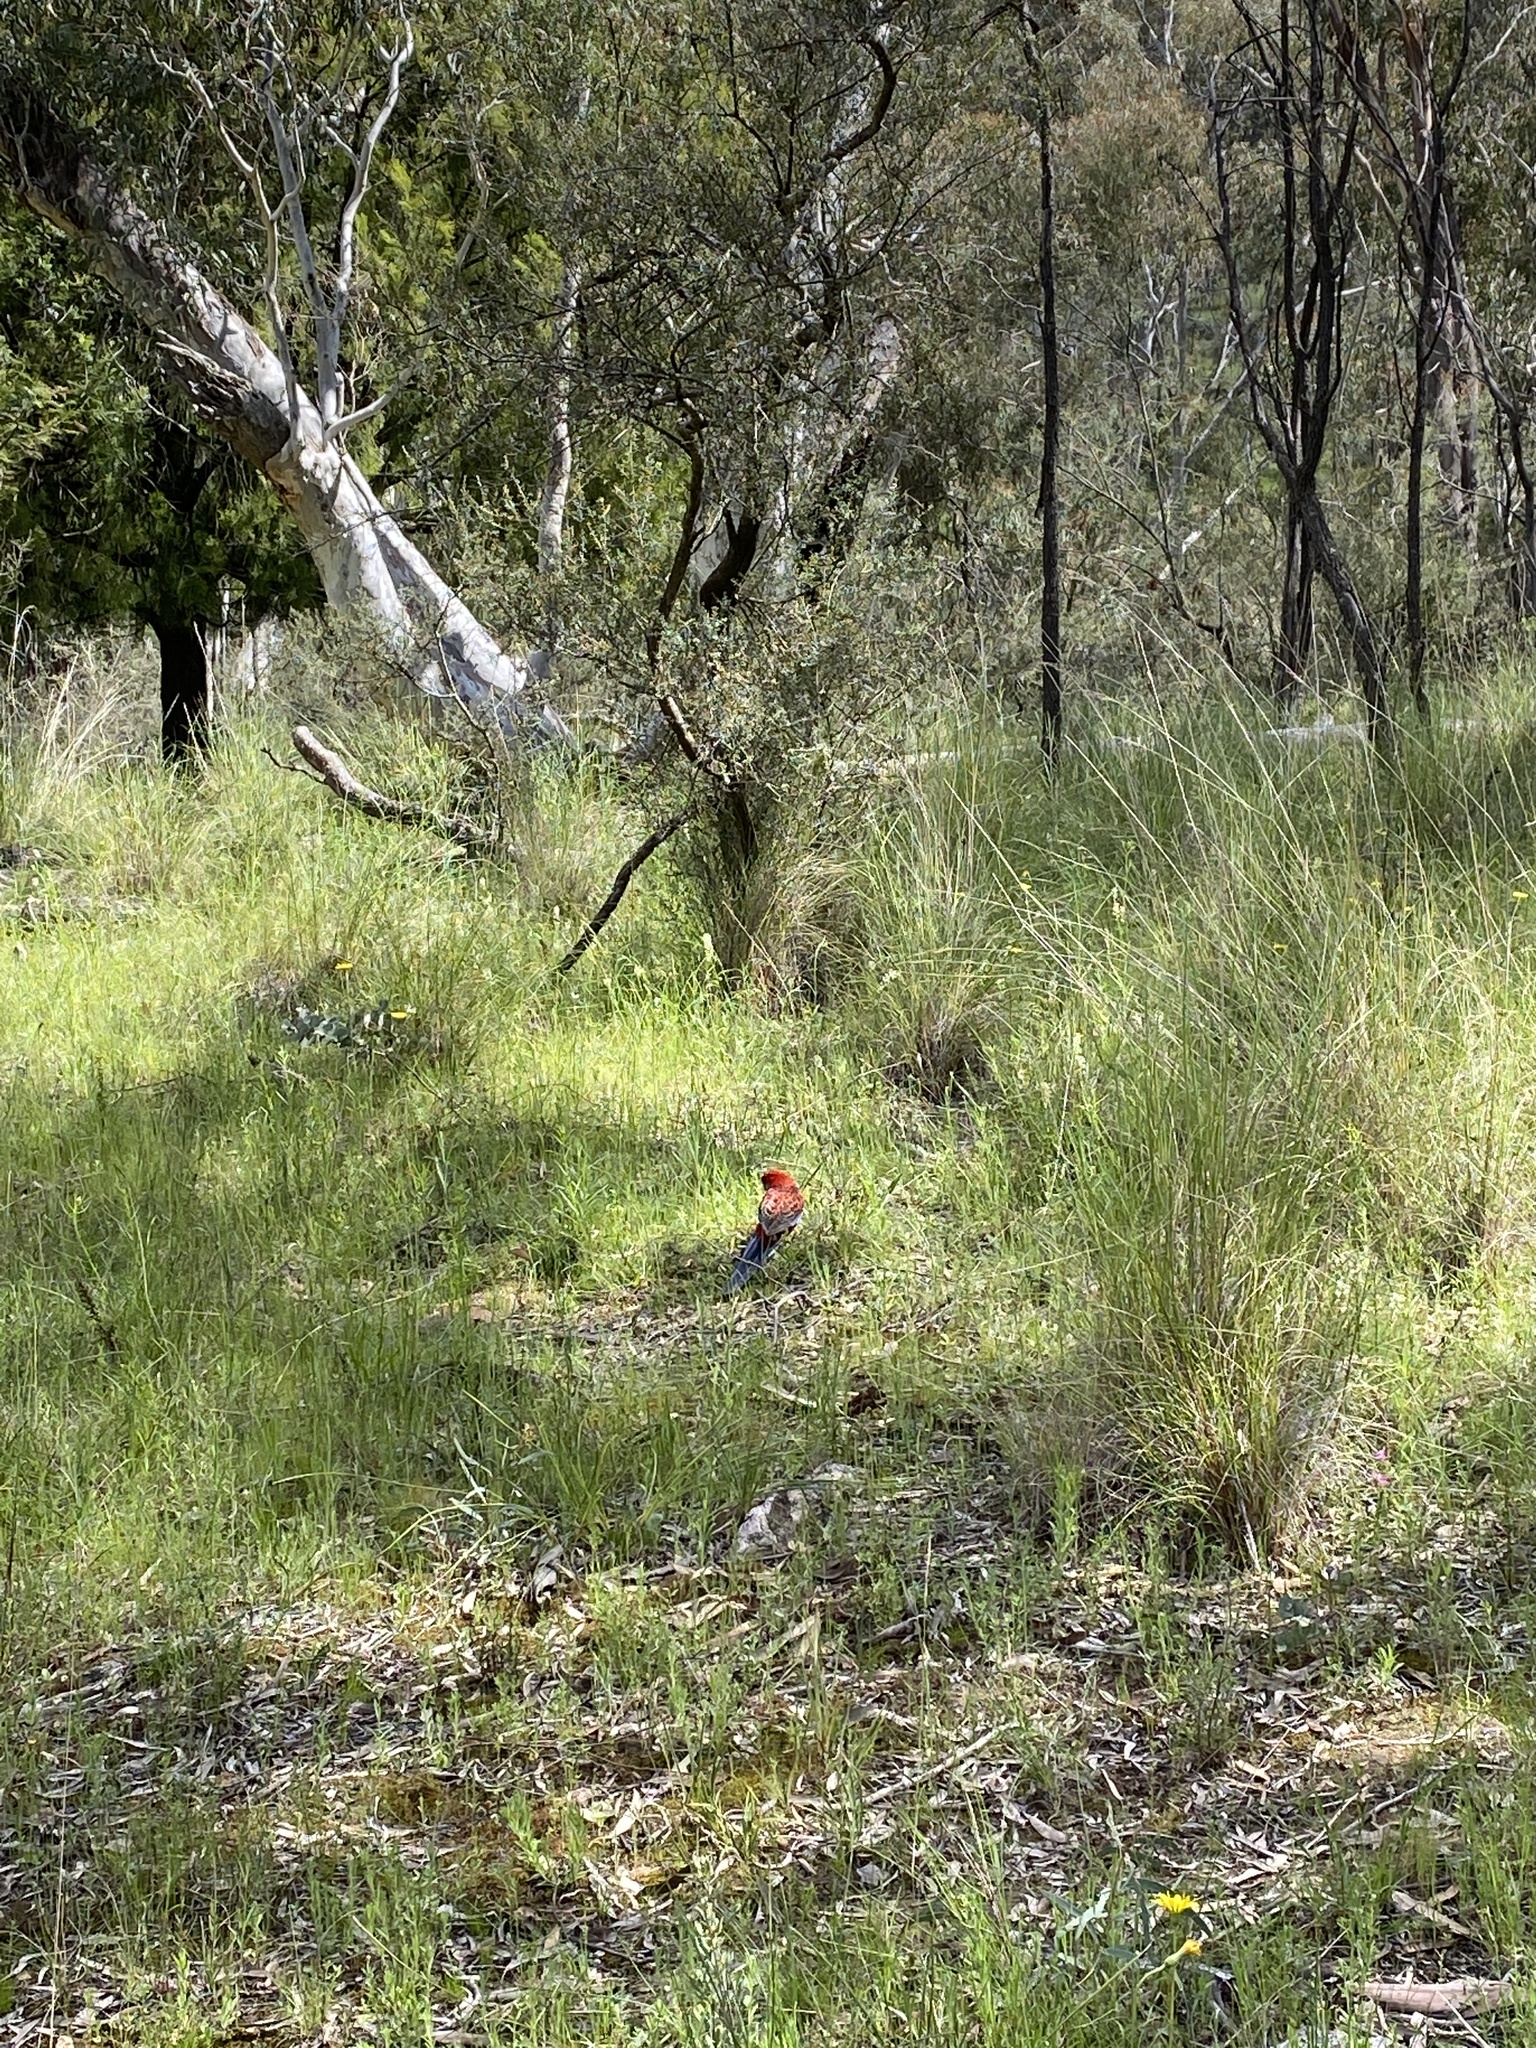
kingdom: Animalia
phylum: Chordata
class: Aves
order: Psittaciformes
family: Psittacidae
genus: Platycercus
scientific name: Platycercus elegans
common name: Crimson rosella
